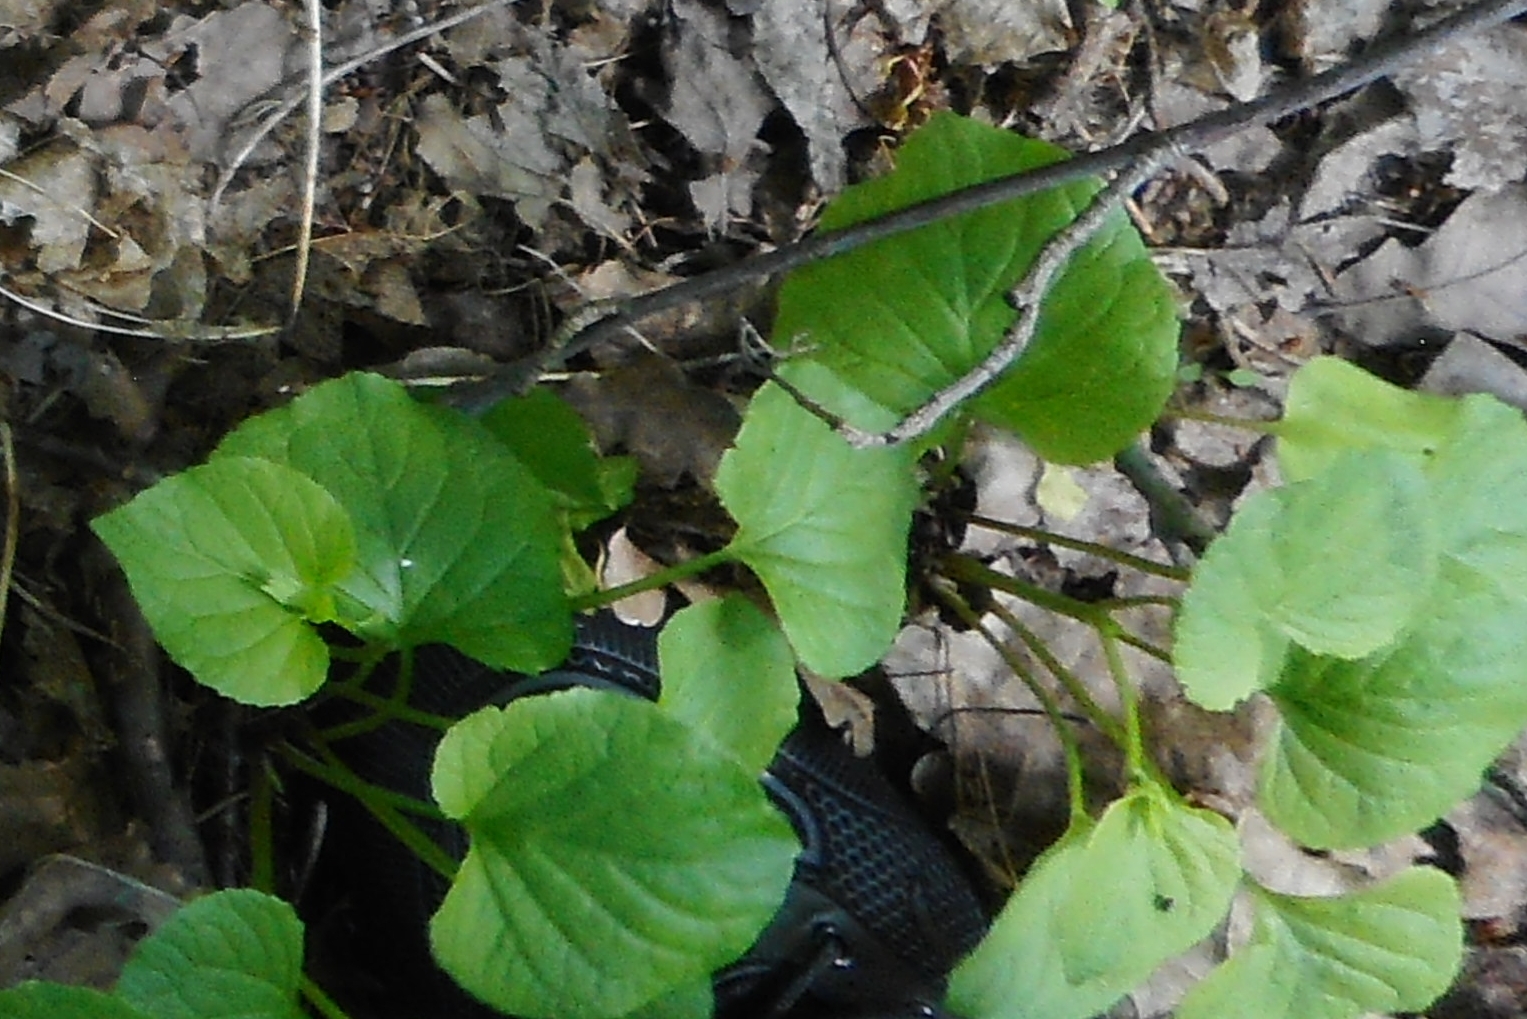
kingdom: Plantae
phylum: Tracheophyta
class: Magnoliopsida
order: Malpighiales
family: Violaceae
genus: Viola
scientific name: Viola mirabilis
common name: Wonder violet
